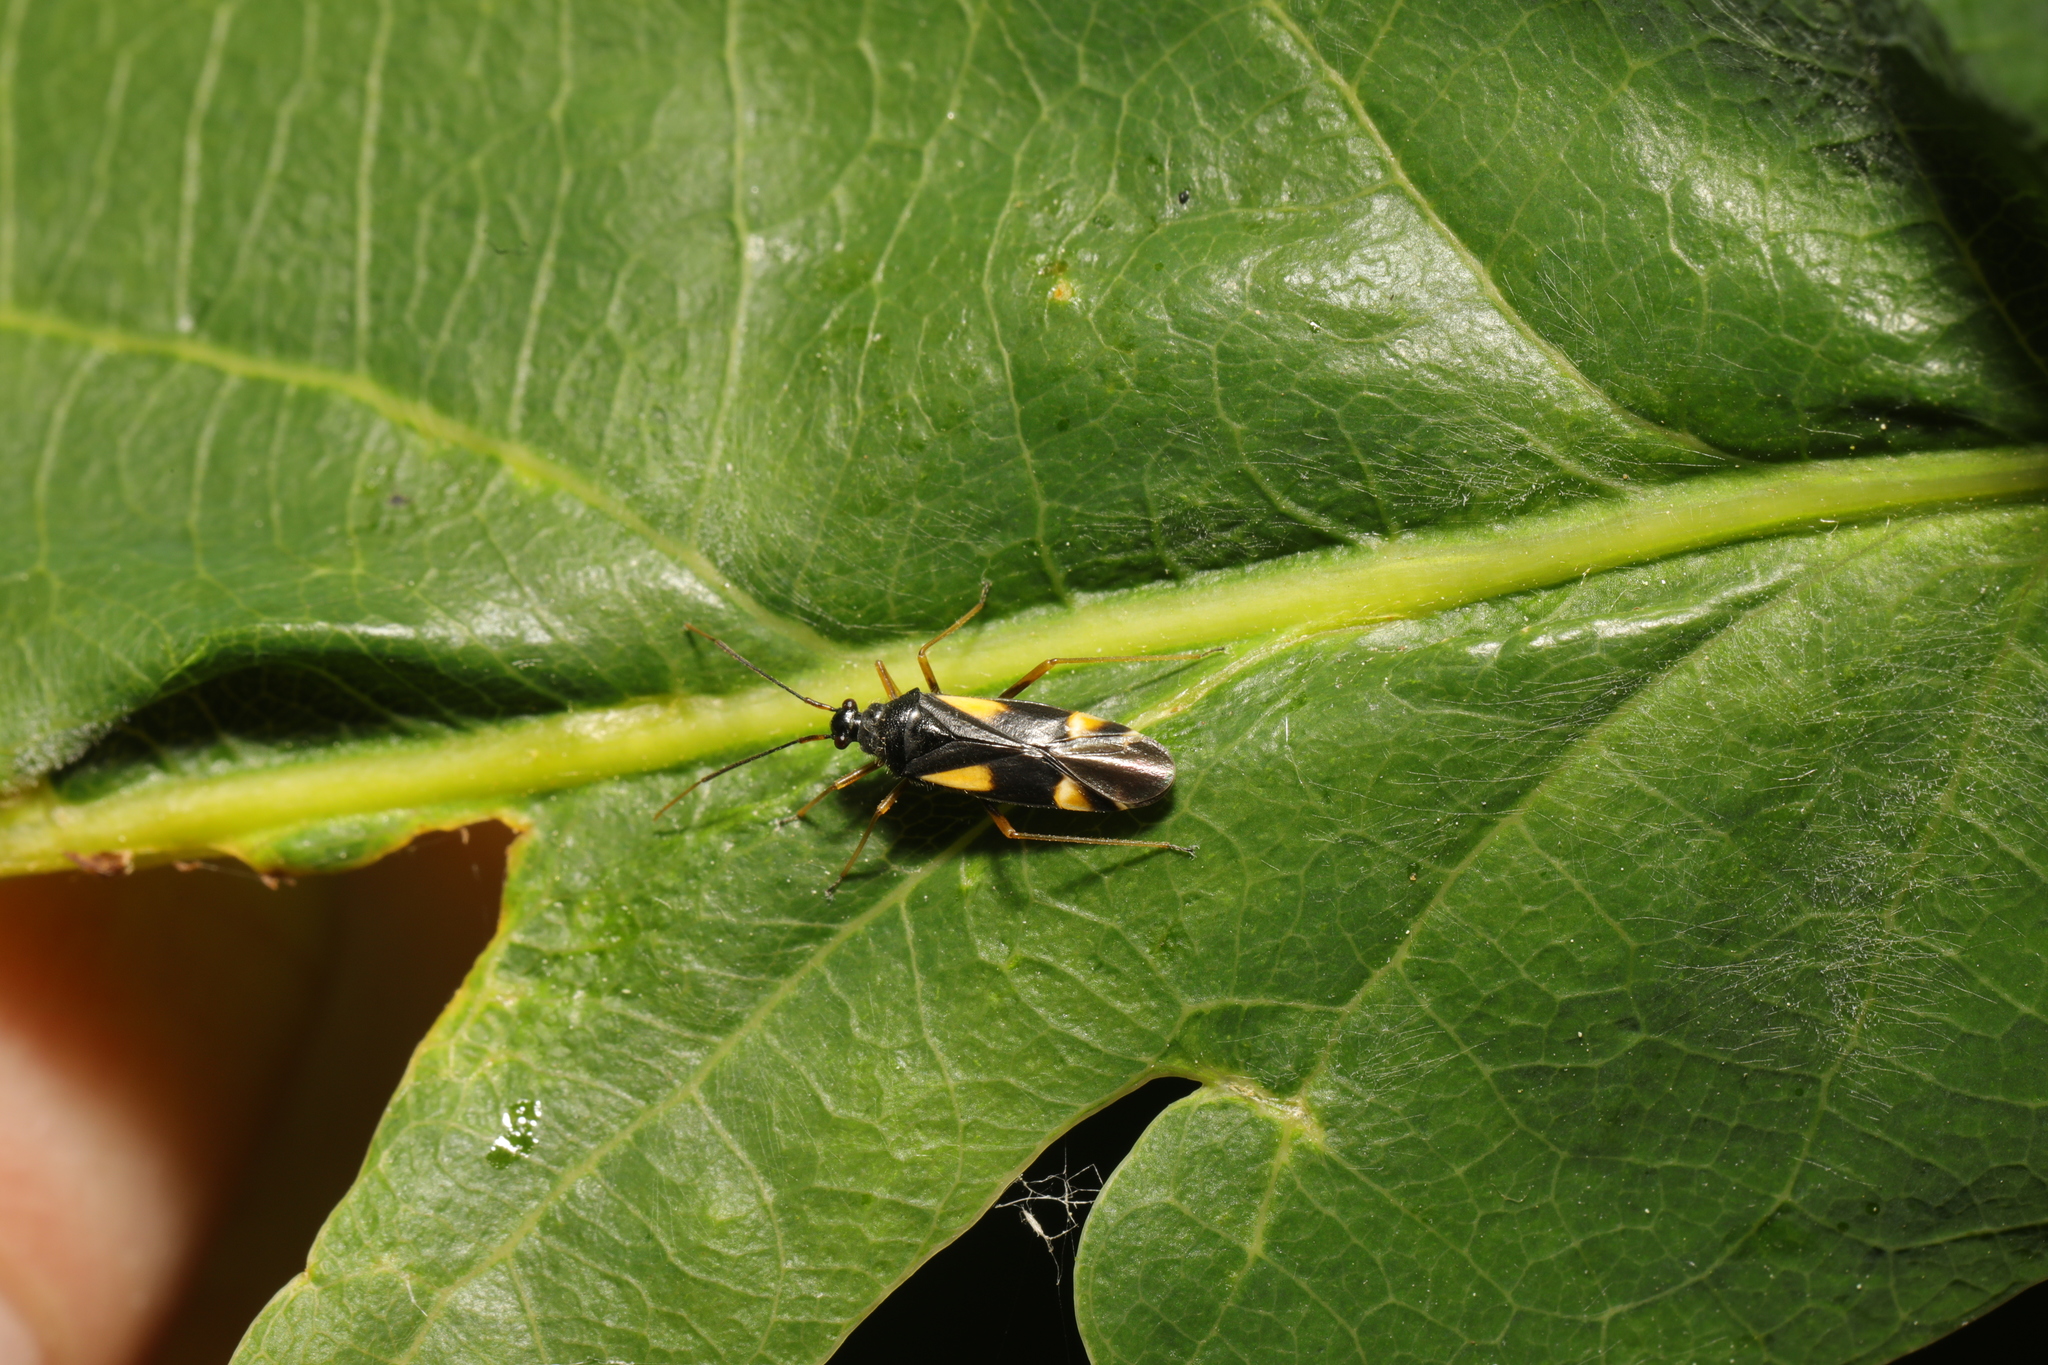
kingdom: Animalia
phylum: Arthropoda
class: Insecta
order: Hemiptera
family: Miridae
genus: Dryophilocoris
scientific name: Dryophilocoris flavoquadrimaculatus
